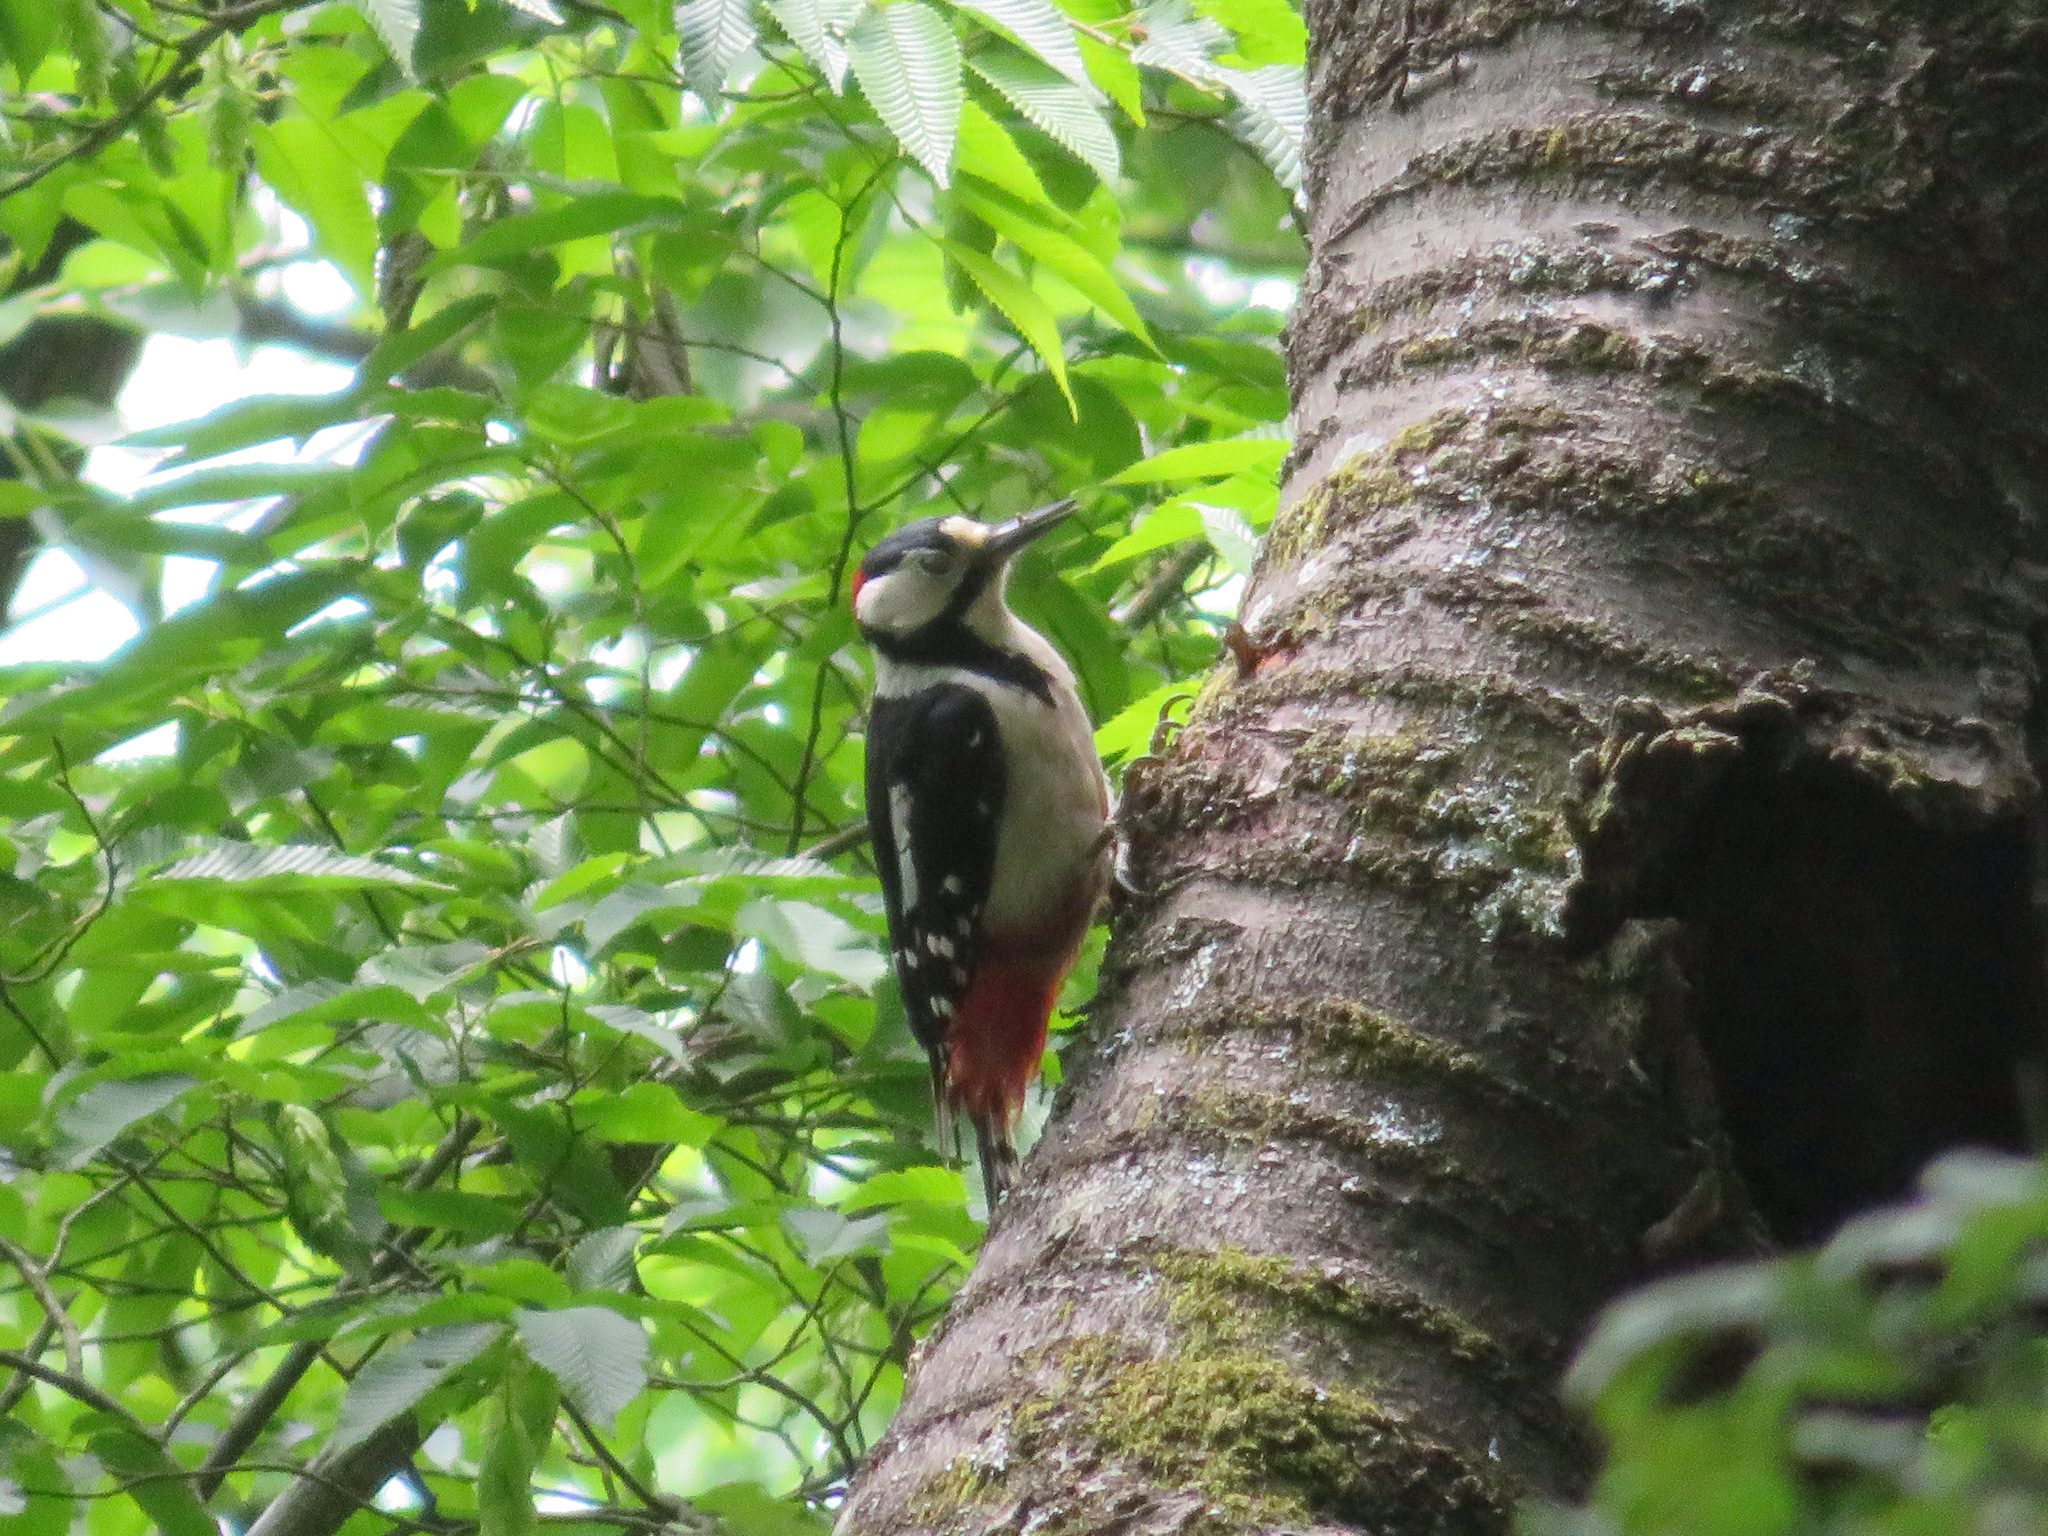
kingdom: Animalia
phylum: Chordata
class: Aves
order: Piciformes
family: Picidae
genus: Dendrocopos
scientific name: Dendrocopos major
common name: Great spotted woodpecker
